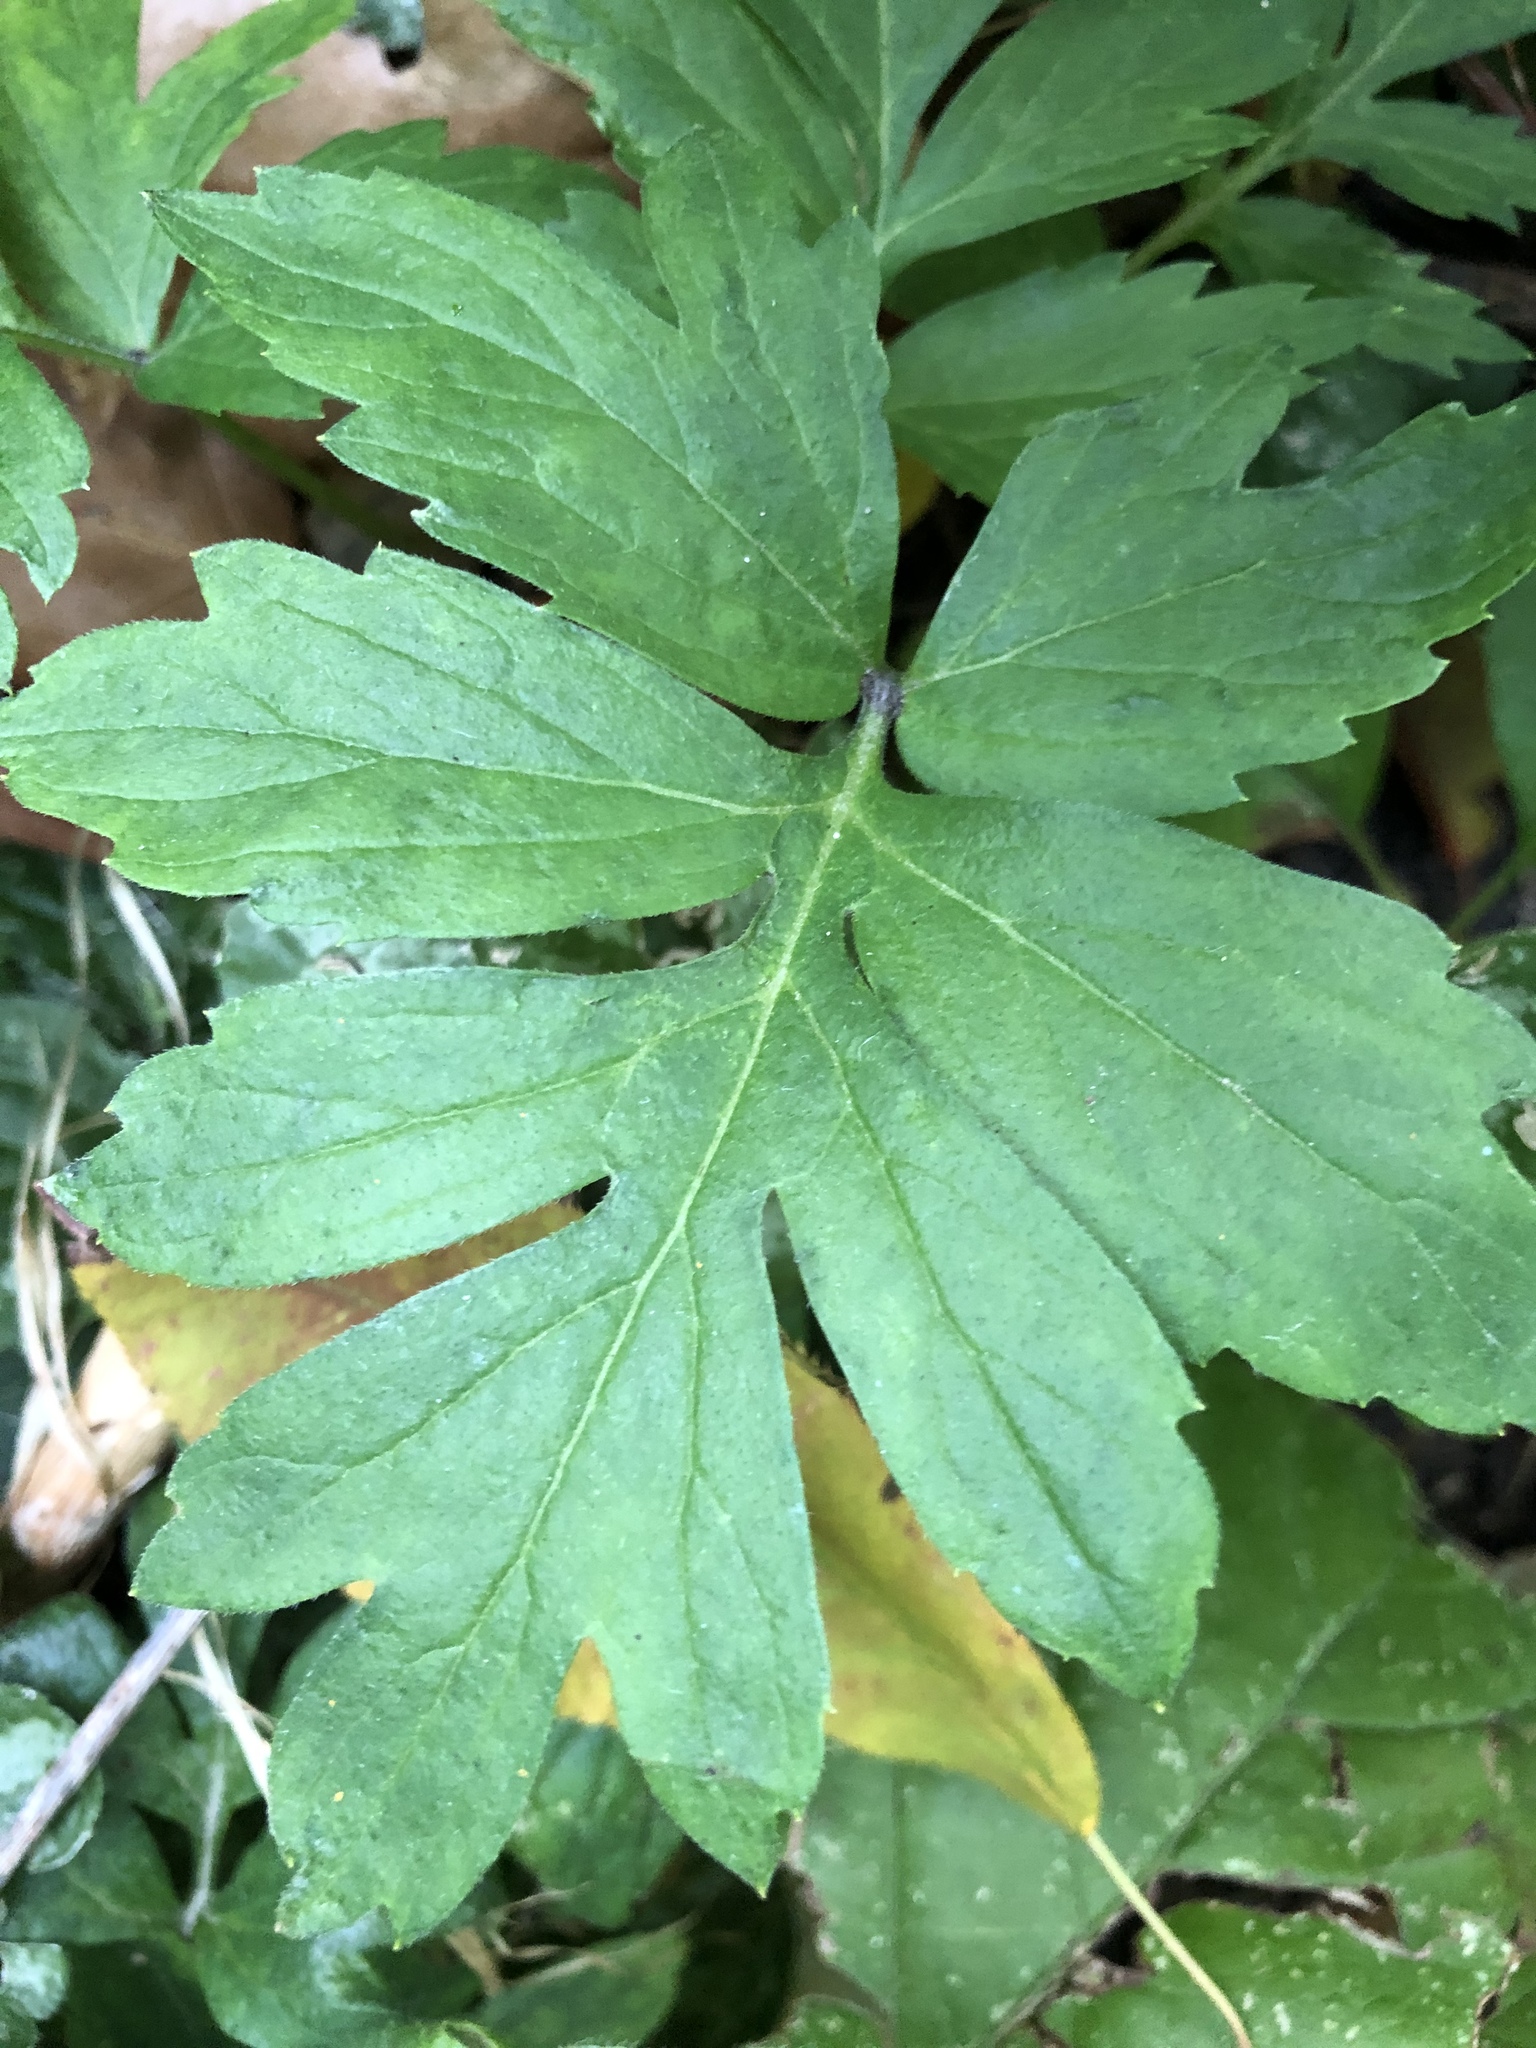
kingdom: Plantae
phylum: Tracheophyta
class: Magnoliopsida
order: Boraginales
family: Hydrophyllaceae
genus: Hydrophyllum
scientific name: Hydrophyllum virginianum
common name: Virginia waterleaf
